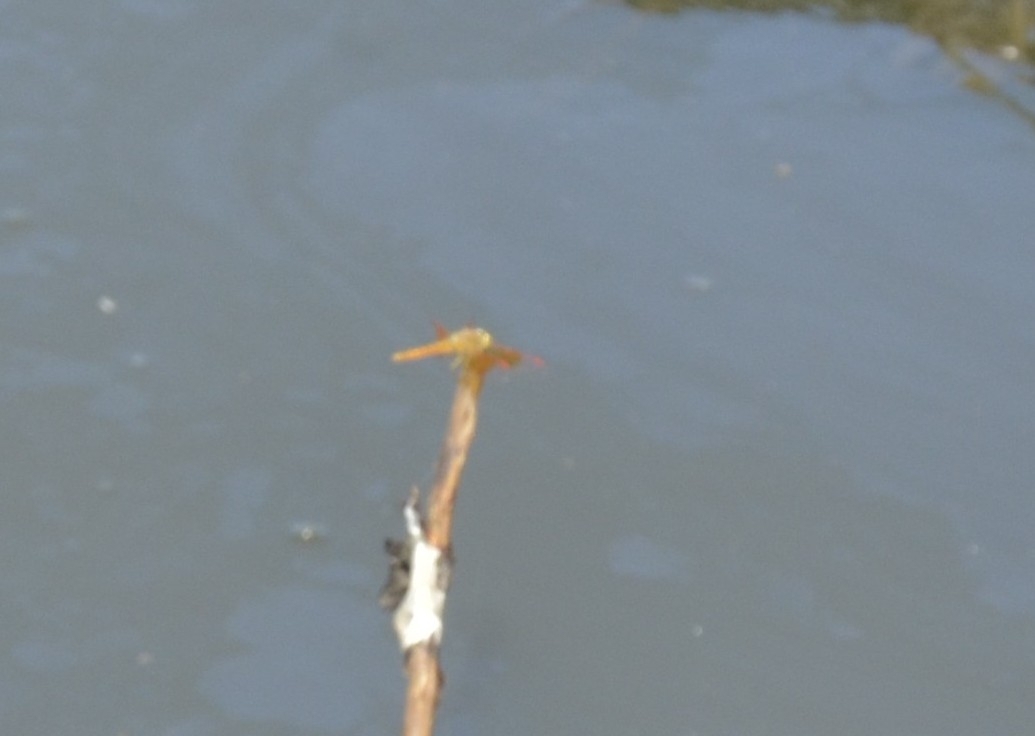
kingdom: Animalia
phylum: Arthropoda
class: Insecta
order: Odonata
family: Libellulidae
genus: Brachythemis
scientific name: Brachythemis contaminata
